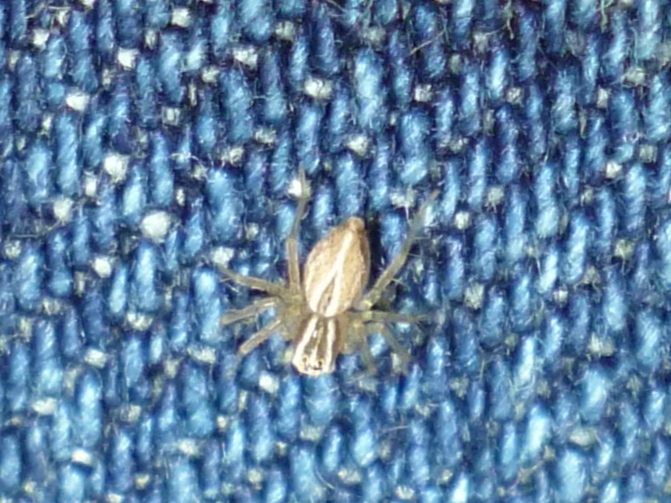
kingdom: Animalia
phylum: Arthropoda
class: Arachnida
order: Araneae
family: Oxyopidae
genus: Oxyopes
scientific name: Oxyopes salticus
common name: Lynx spiders
